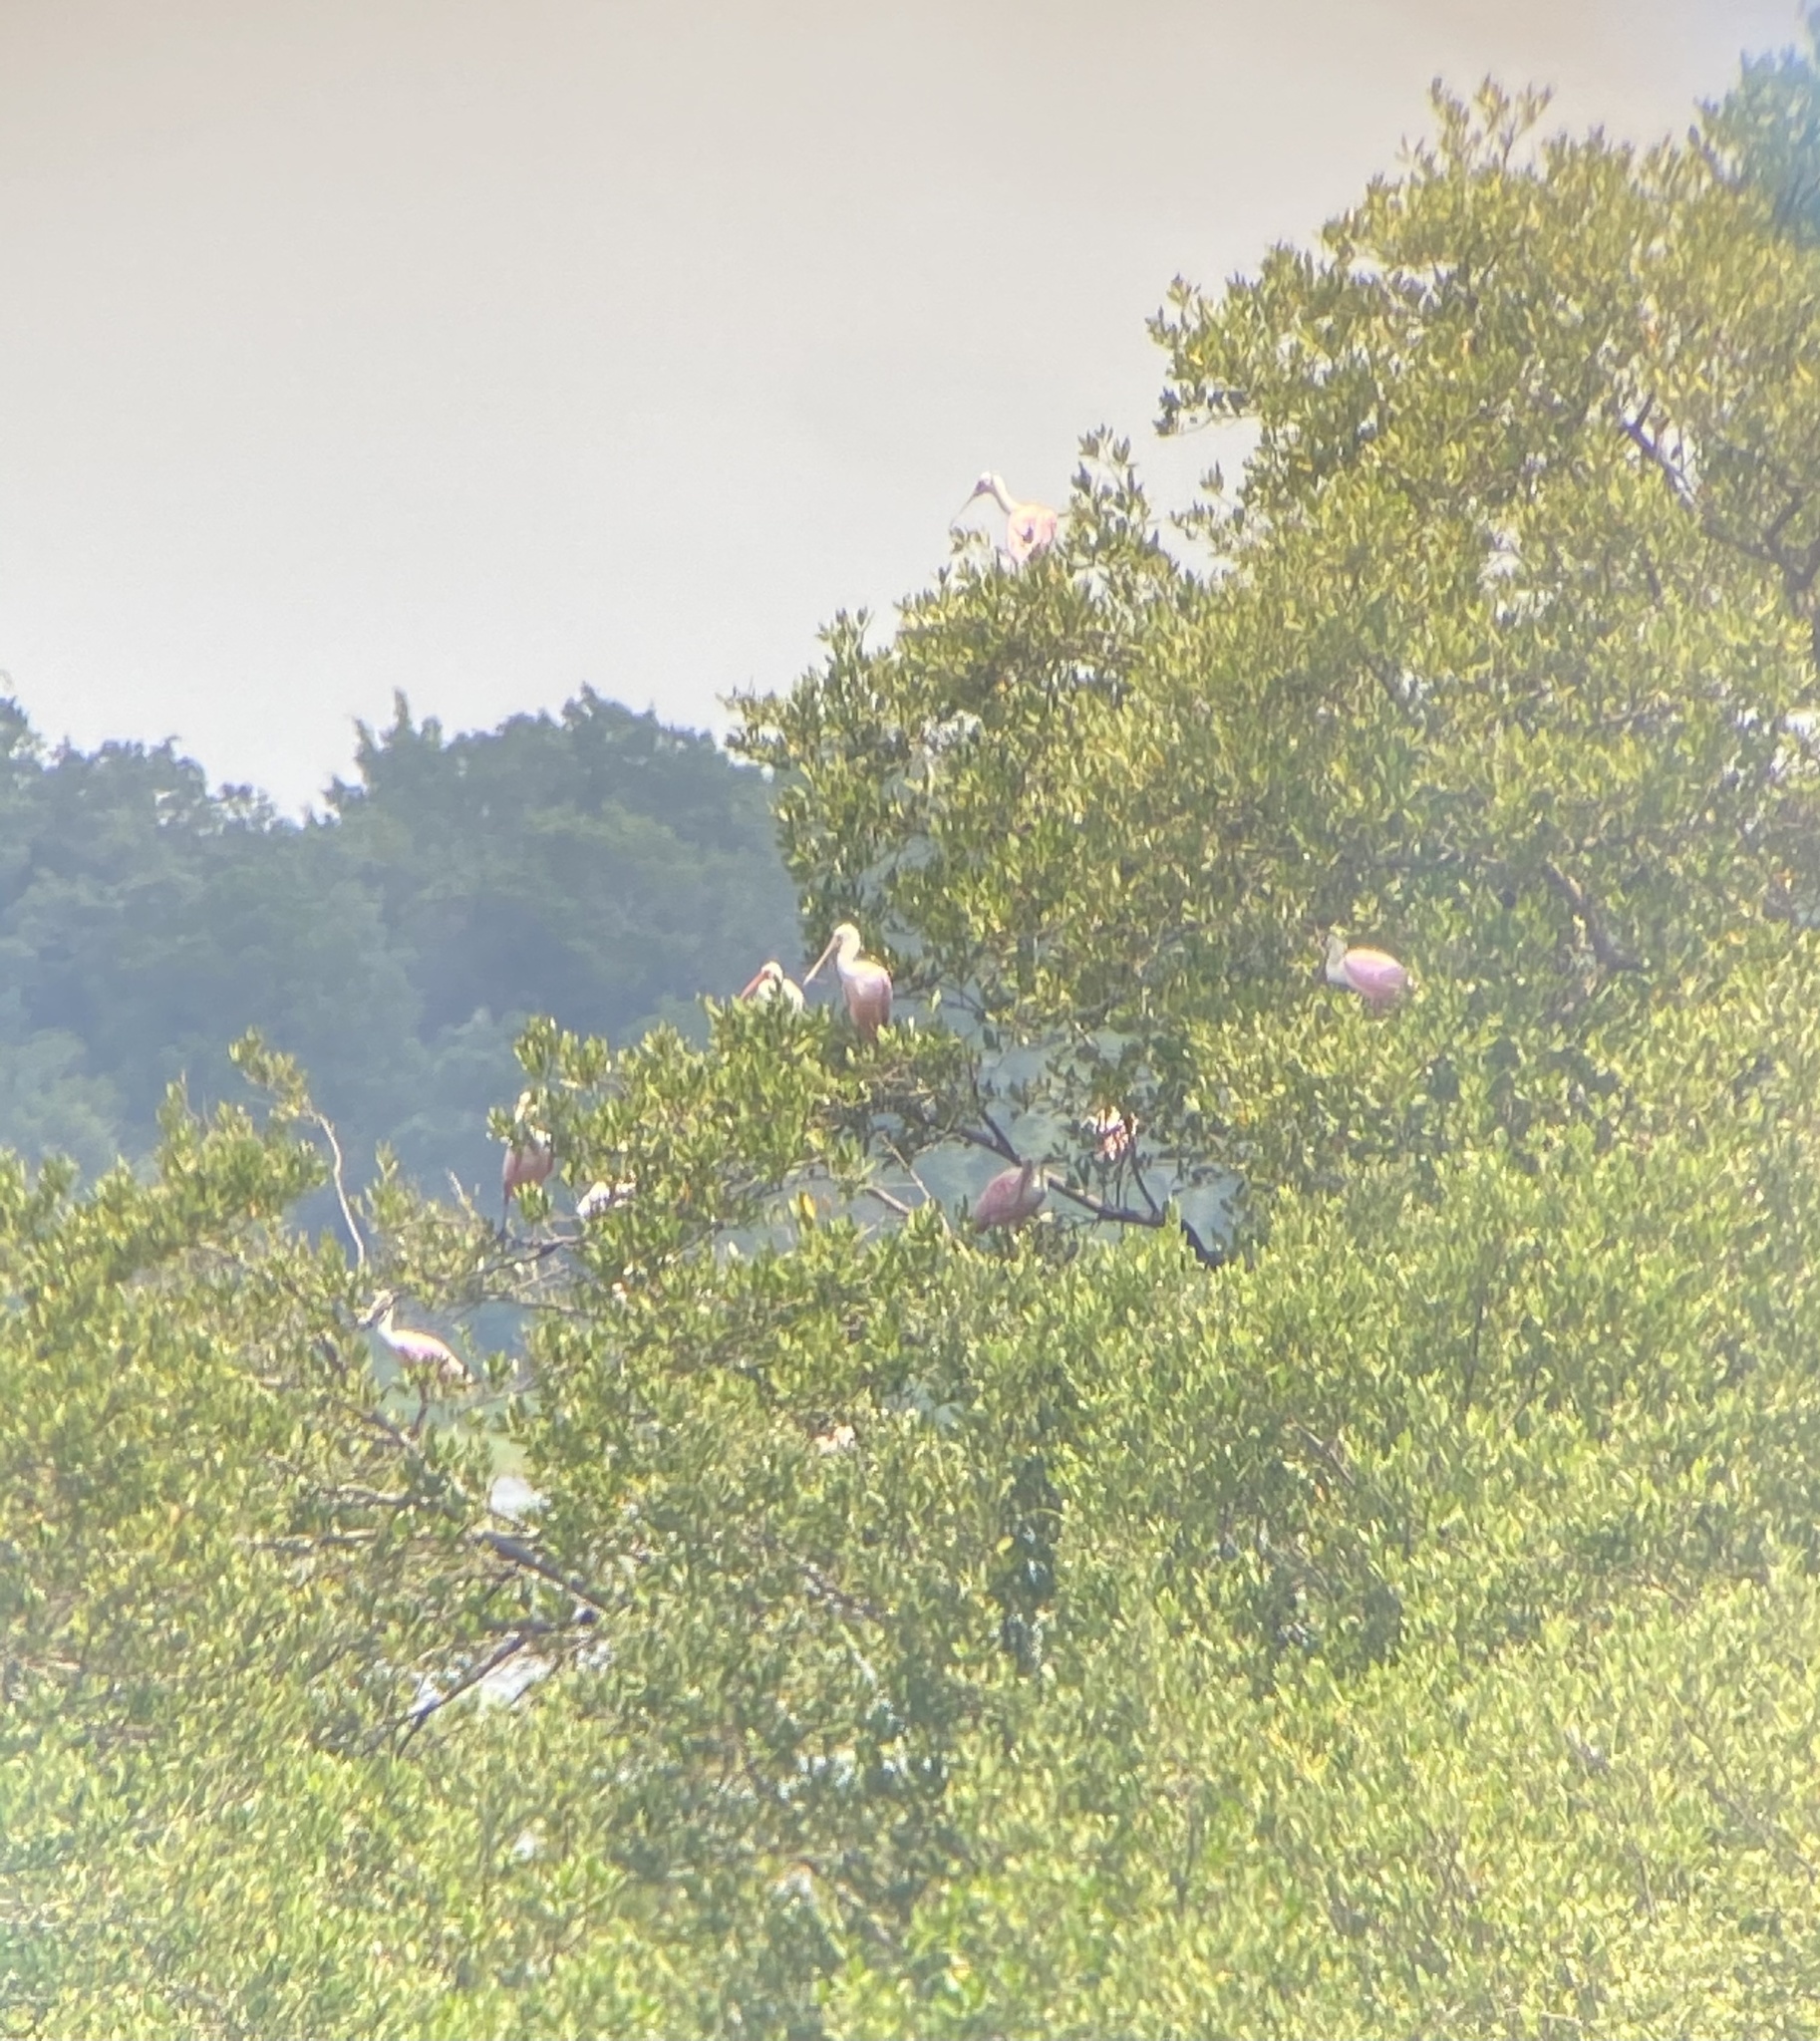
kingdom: Animalia
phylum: Chordata
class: Aves
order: Pelecaniformes
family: Threskiornithidae
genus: Platalea
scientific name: Platalea ajaja
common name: Roseate spoonbill
